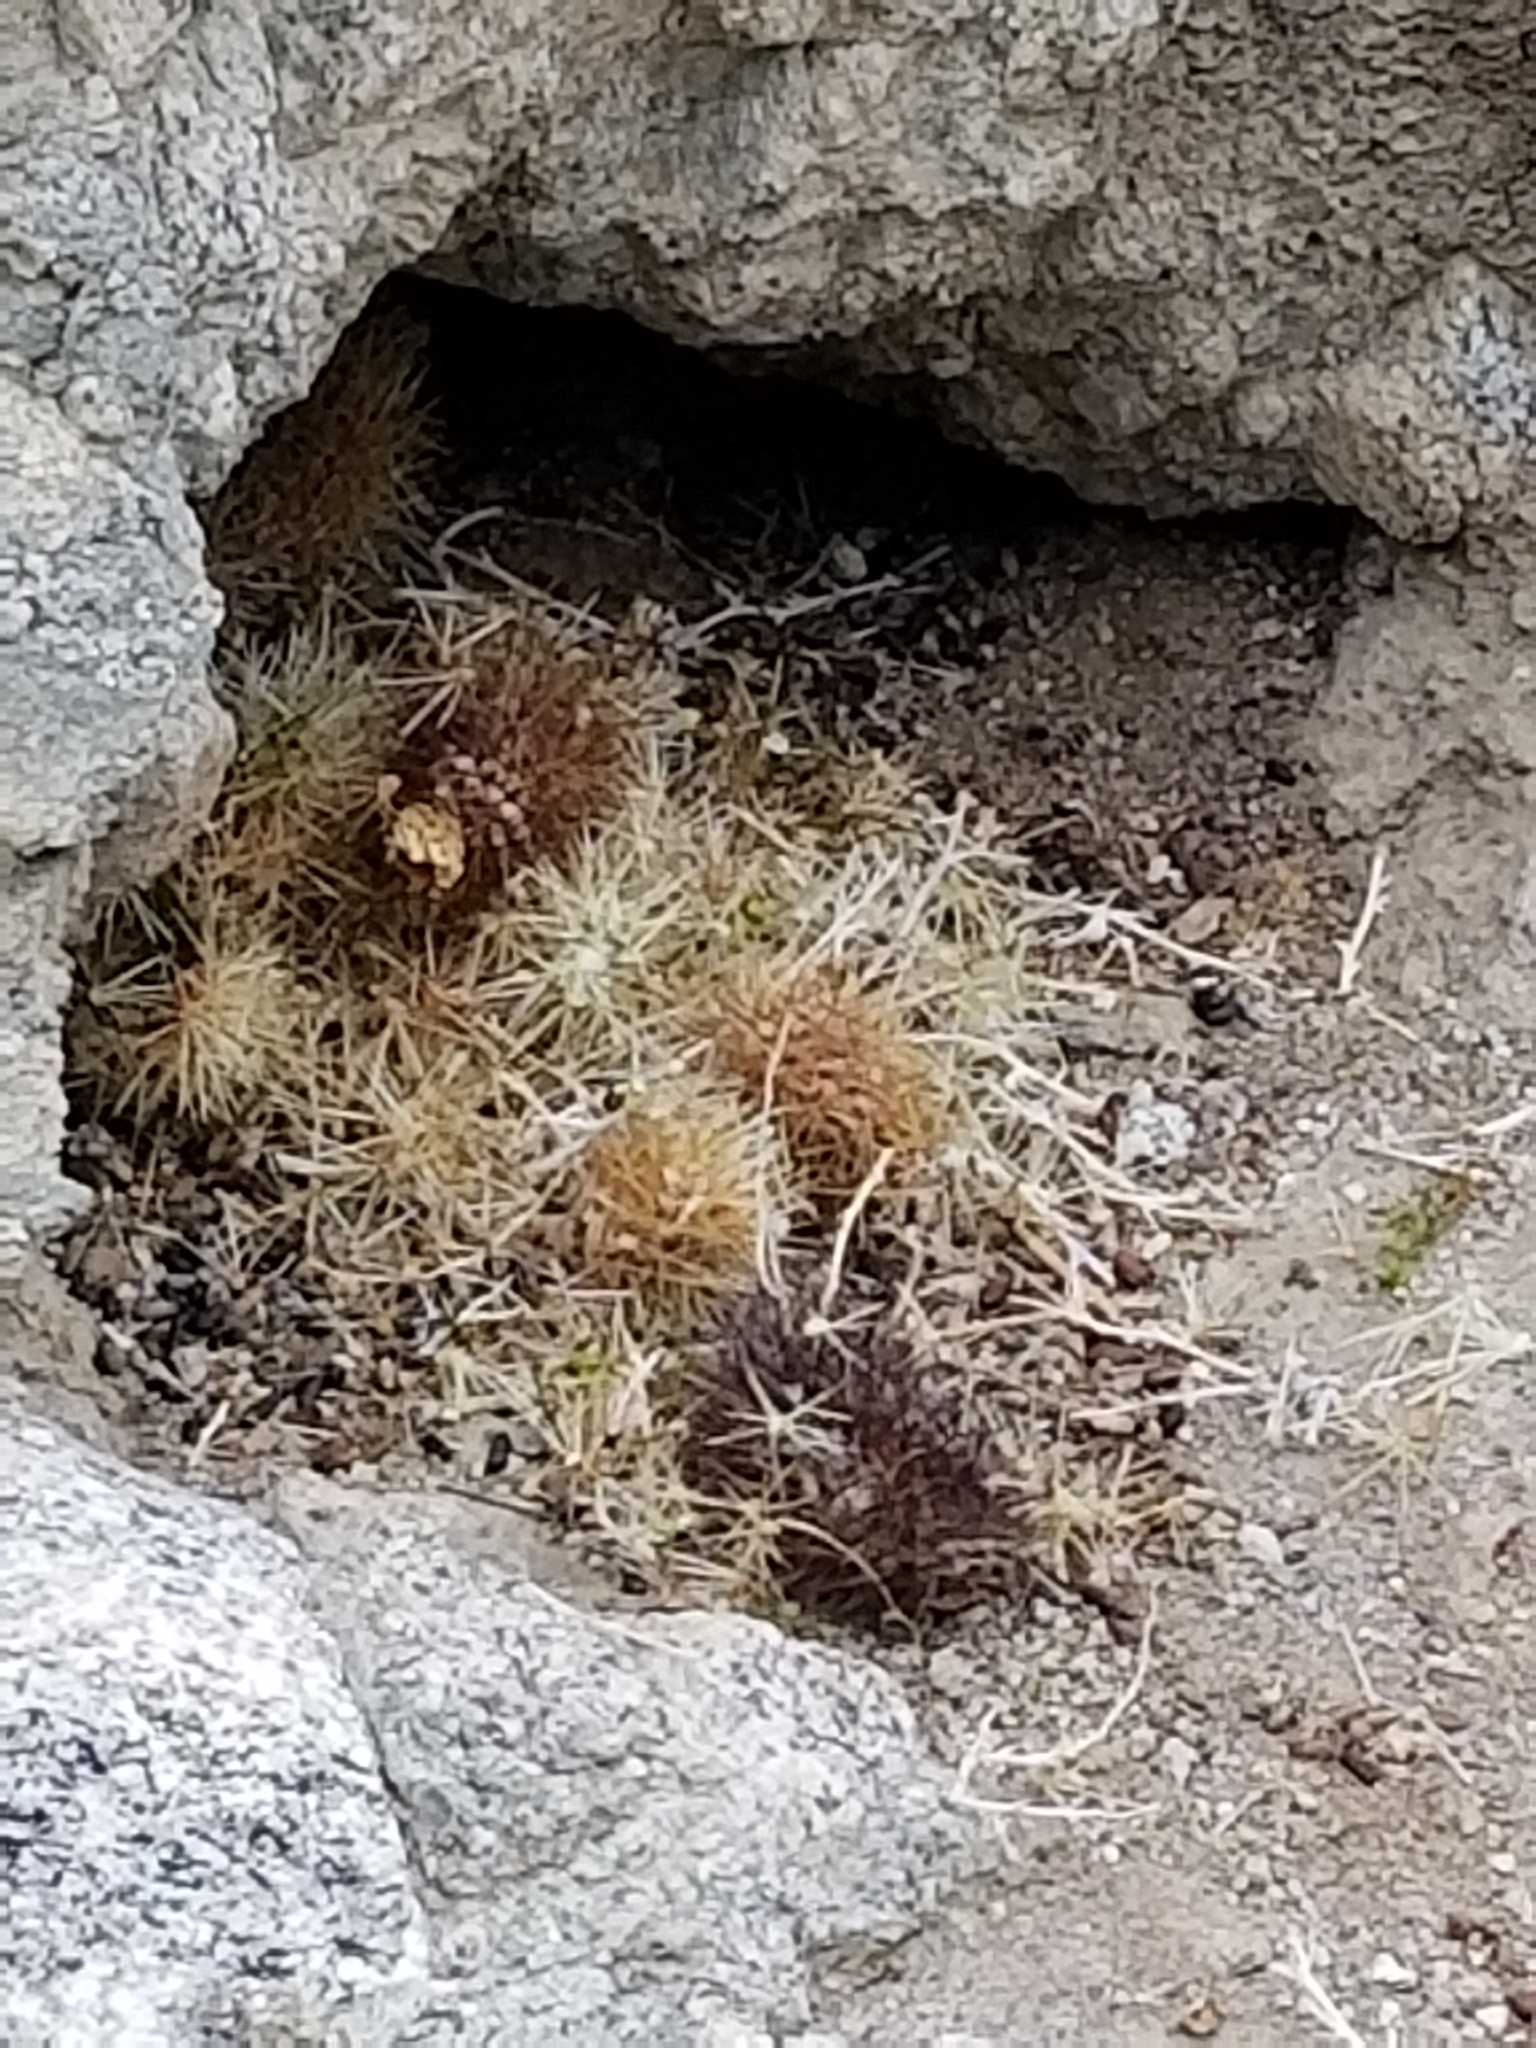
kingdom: Animalia
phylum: Chordata
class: Mammalia
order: Rodentia
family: Cricetidae
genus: Neotoma
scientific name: Neotoma lepida
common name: Desert woodrat
